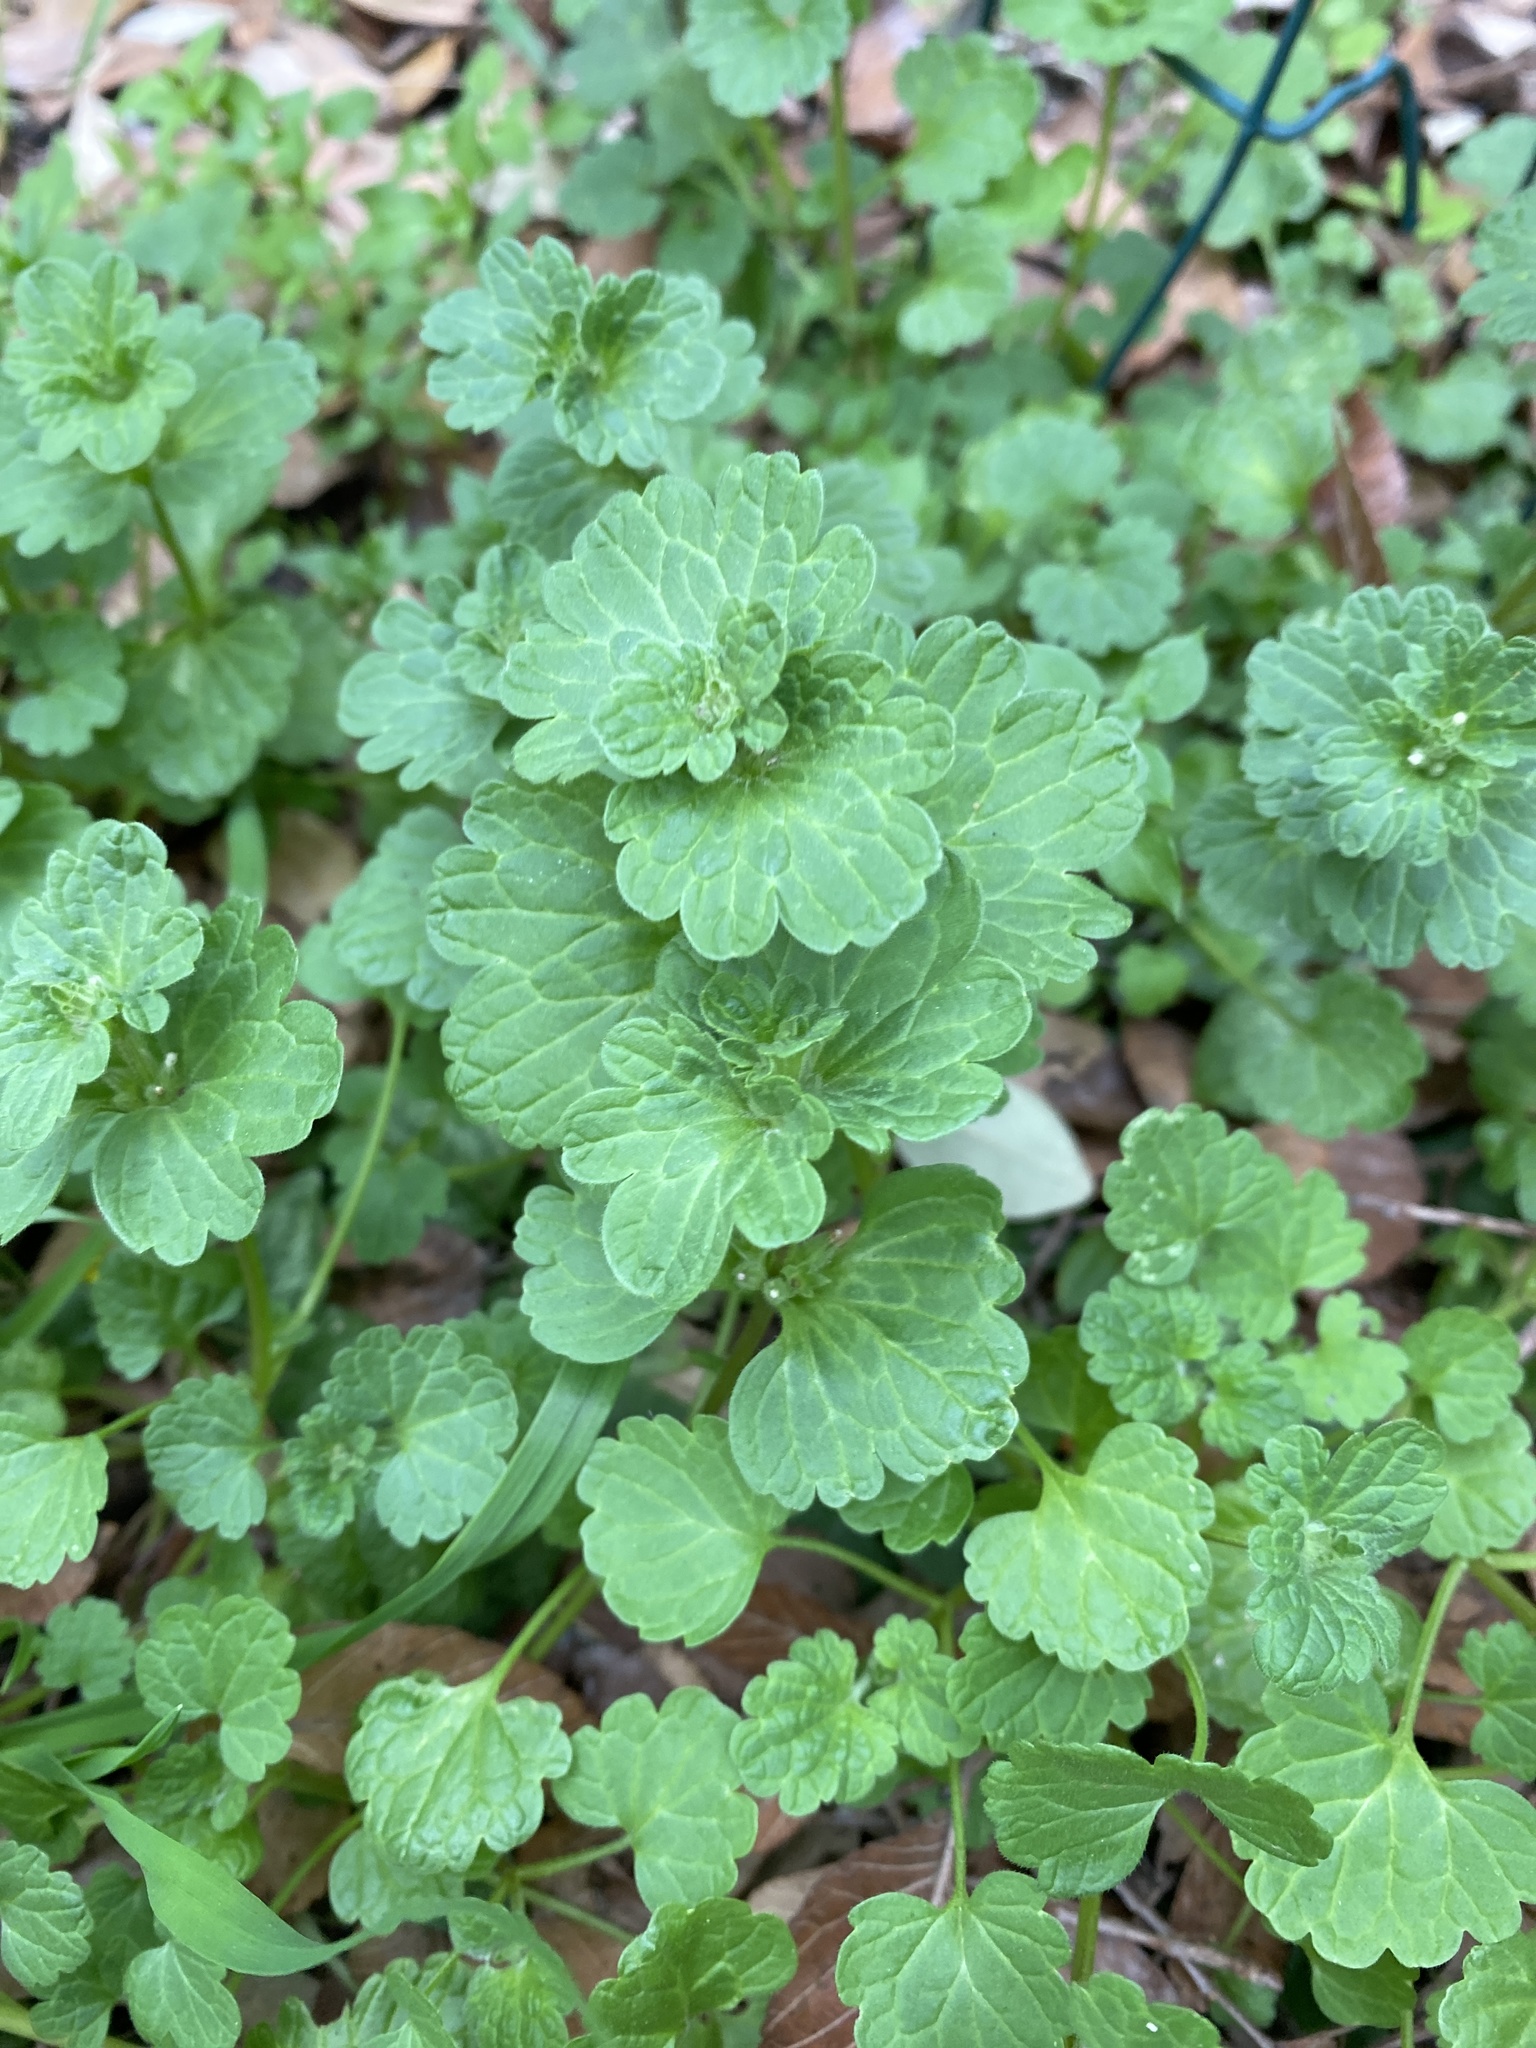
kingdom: Plantae
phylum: Tracheophyta
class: Magnoliopsida
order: Lamiales
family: Lamiaceae
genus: Lamium
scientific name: Lamium amplexicaule
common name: Henbit dead-nettle
